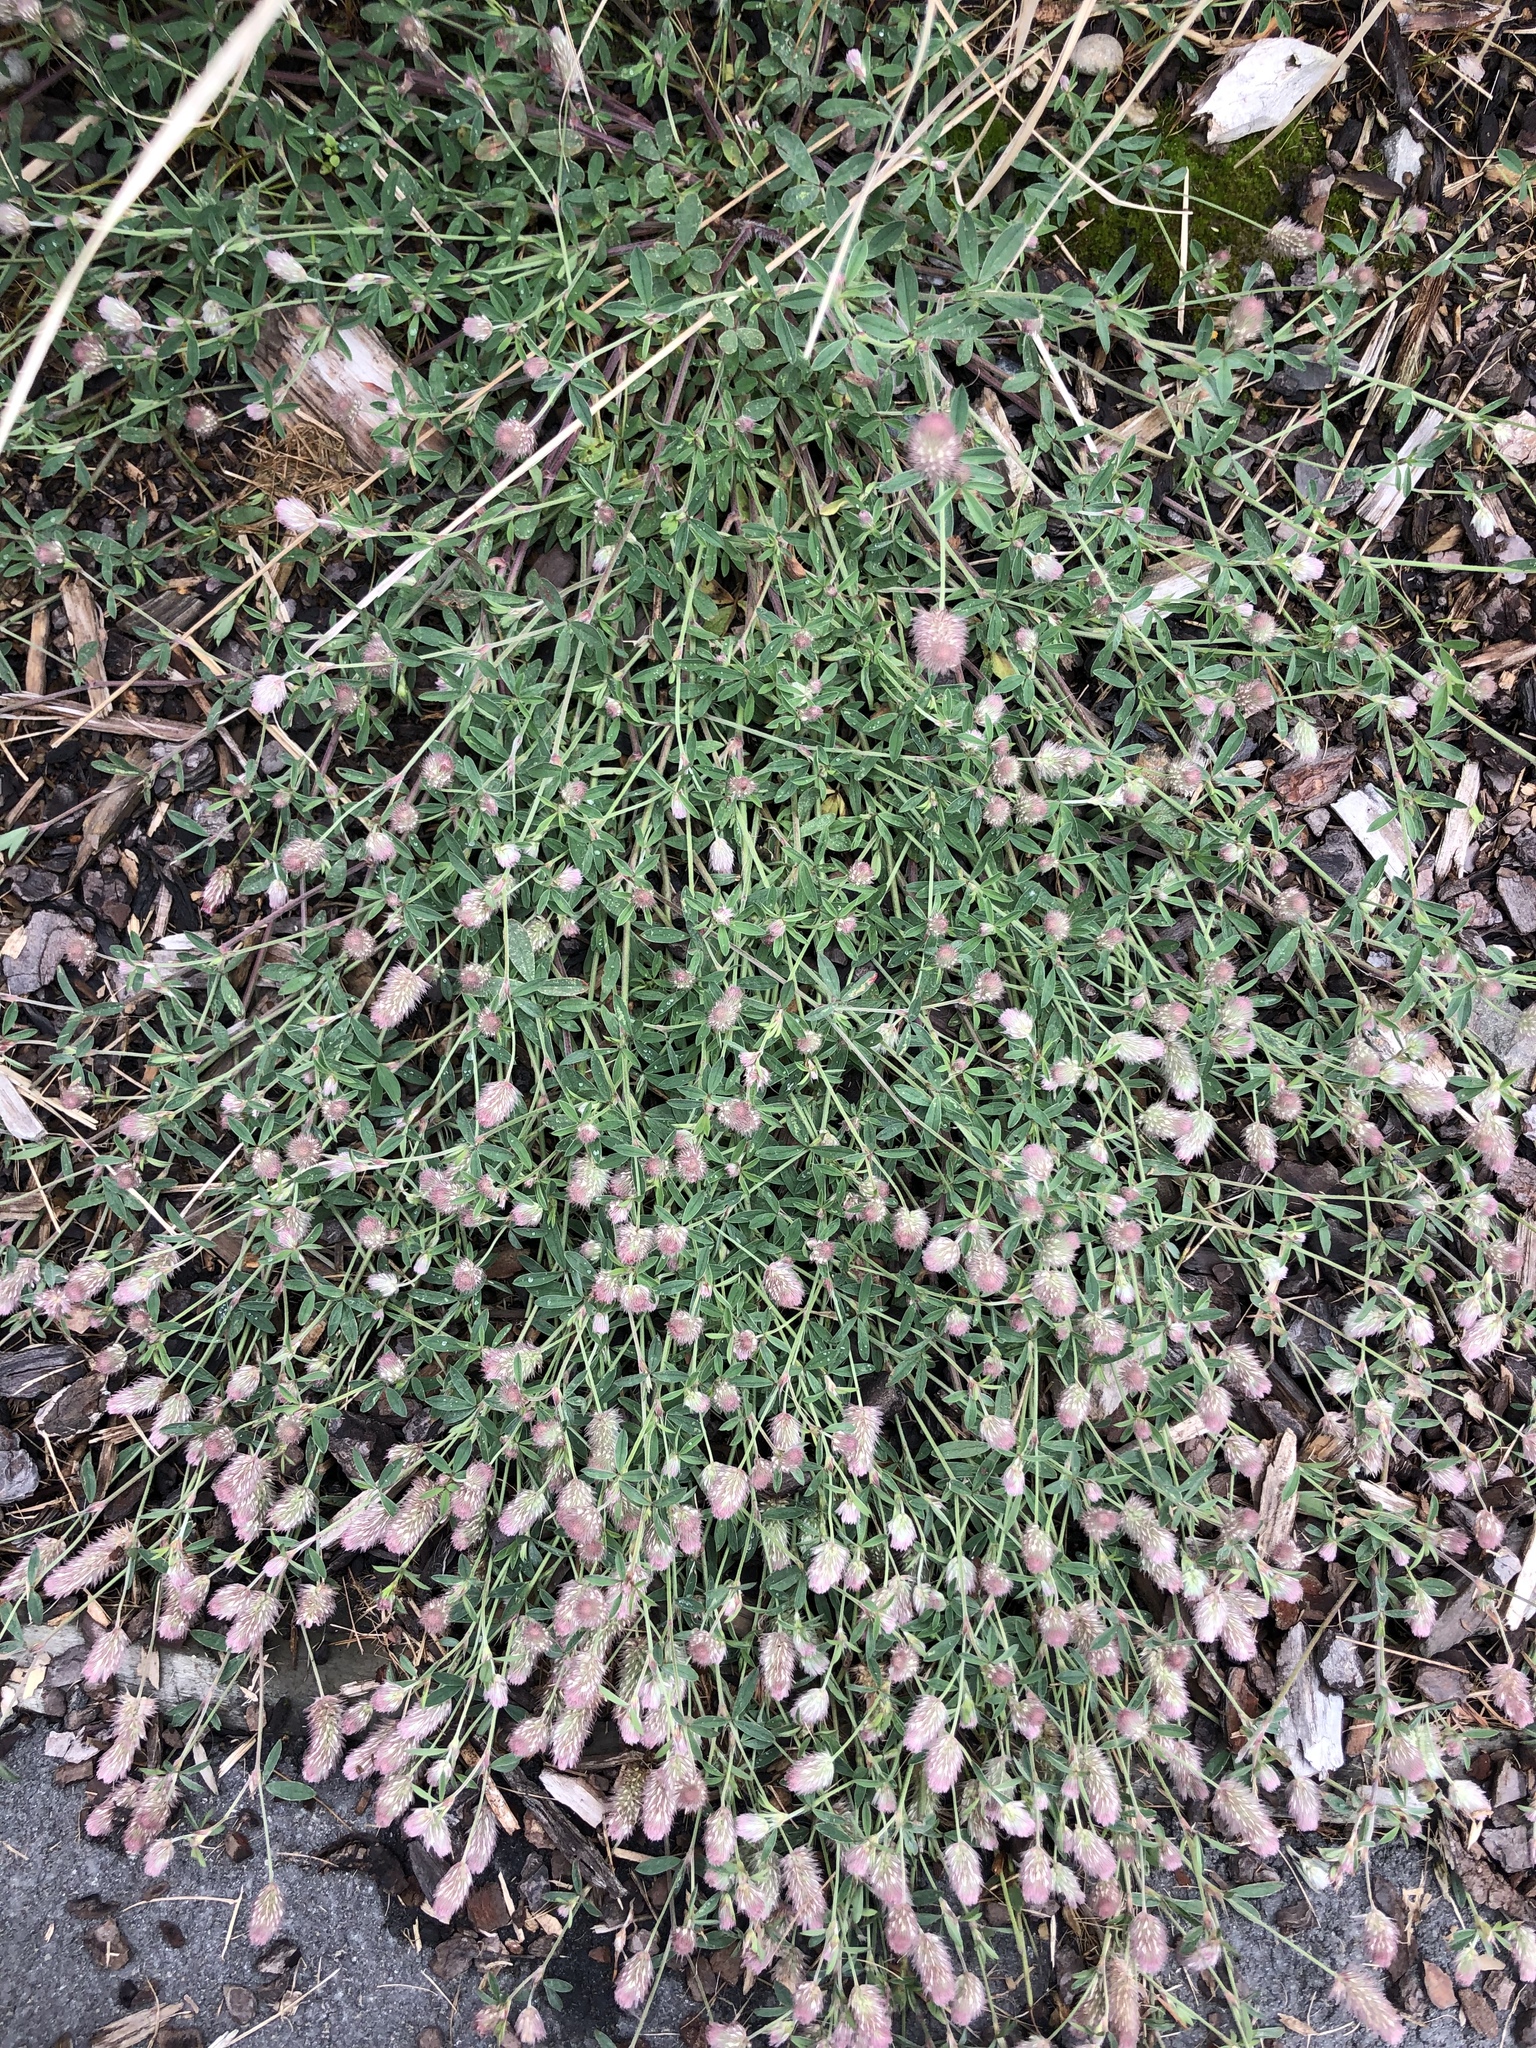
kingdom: Plantae
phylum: Tracheophyta
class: Magnoliopsida
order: Fabales
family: Fabaceae
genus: Trifolium
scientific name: Trifolium arvense
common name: Hare's-foot clover
